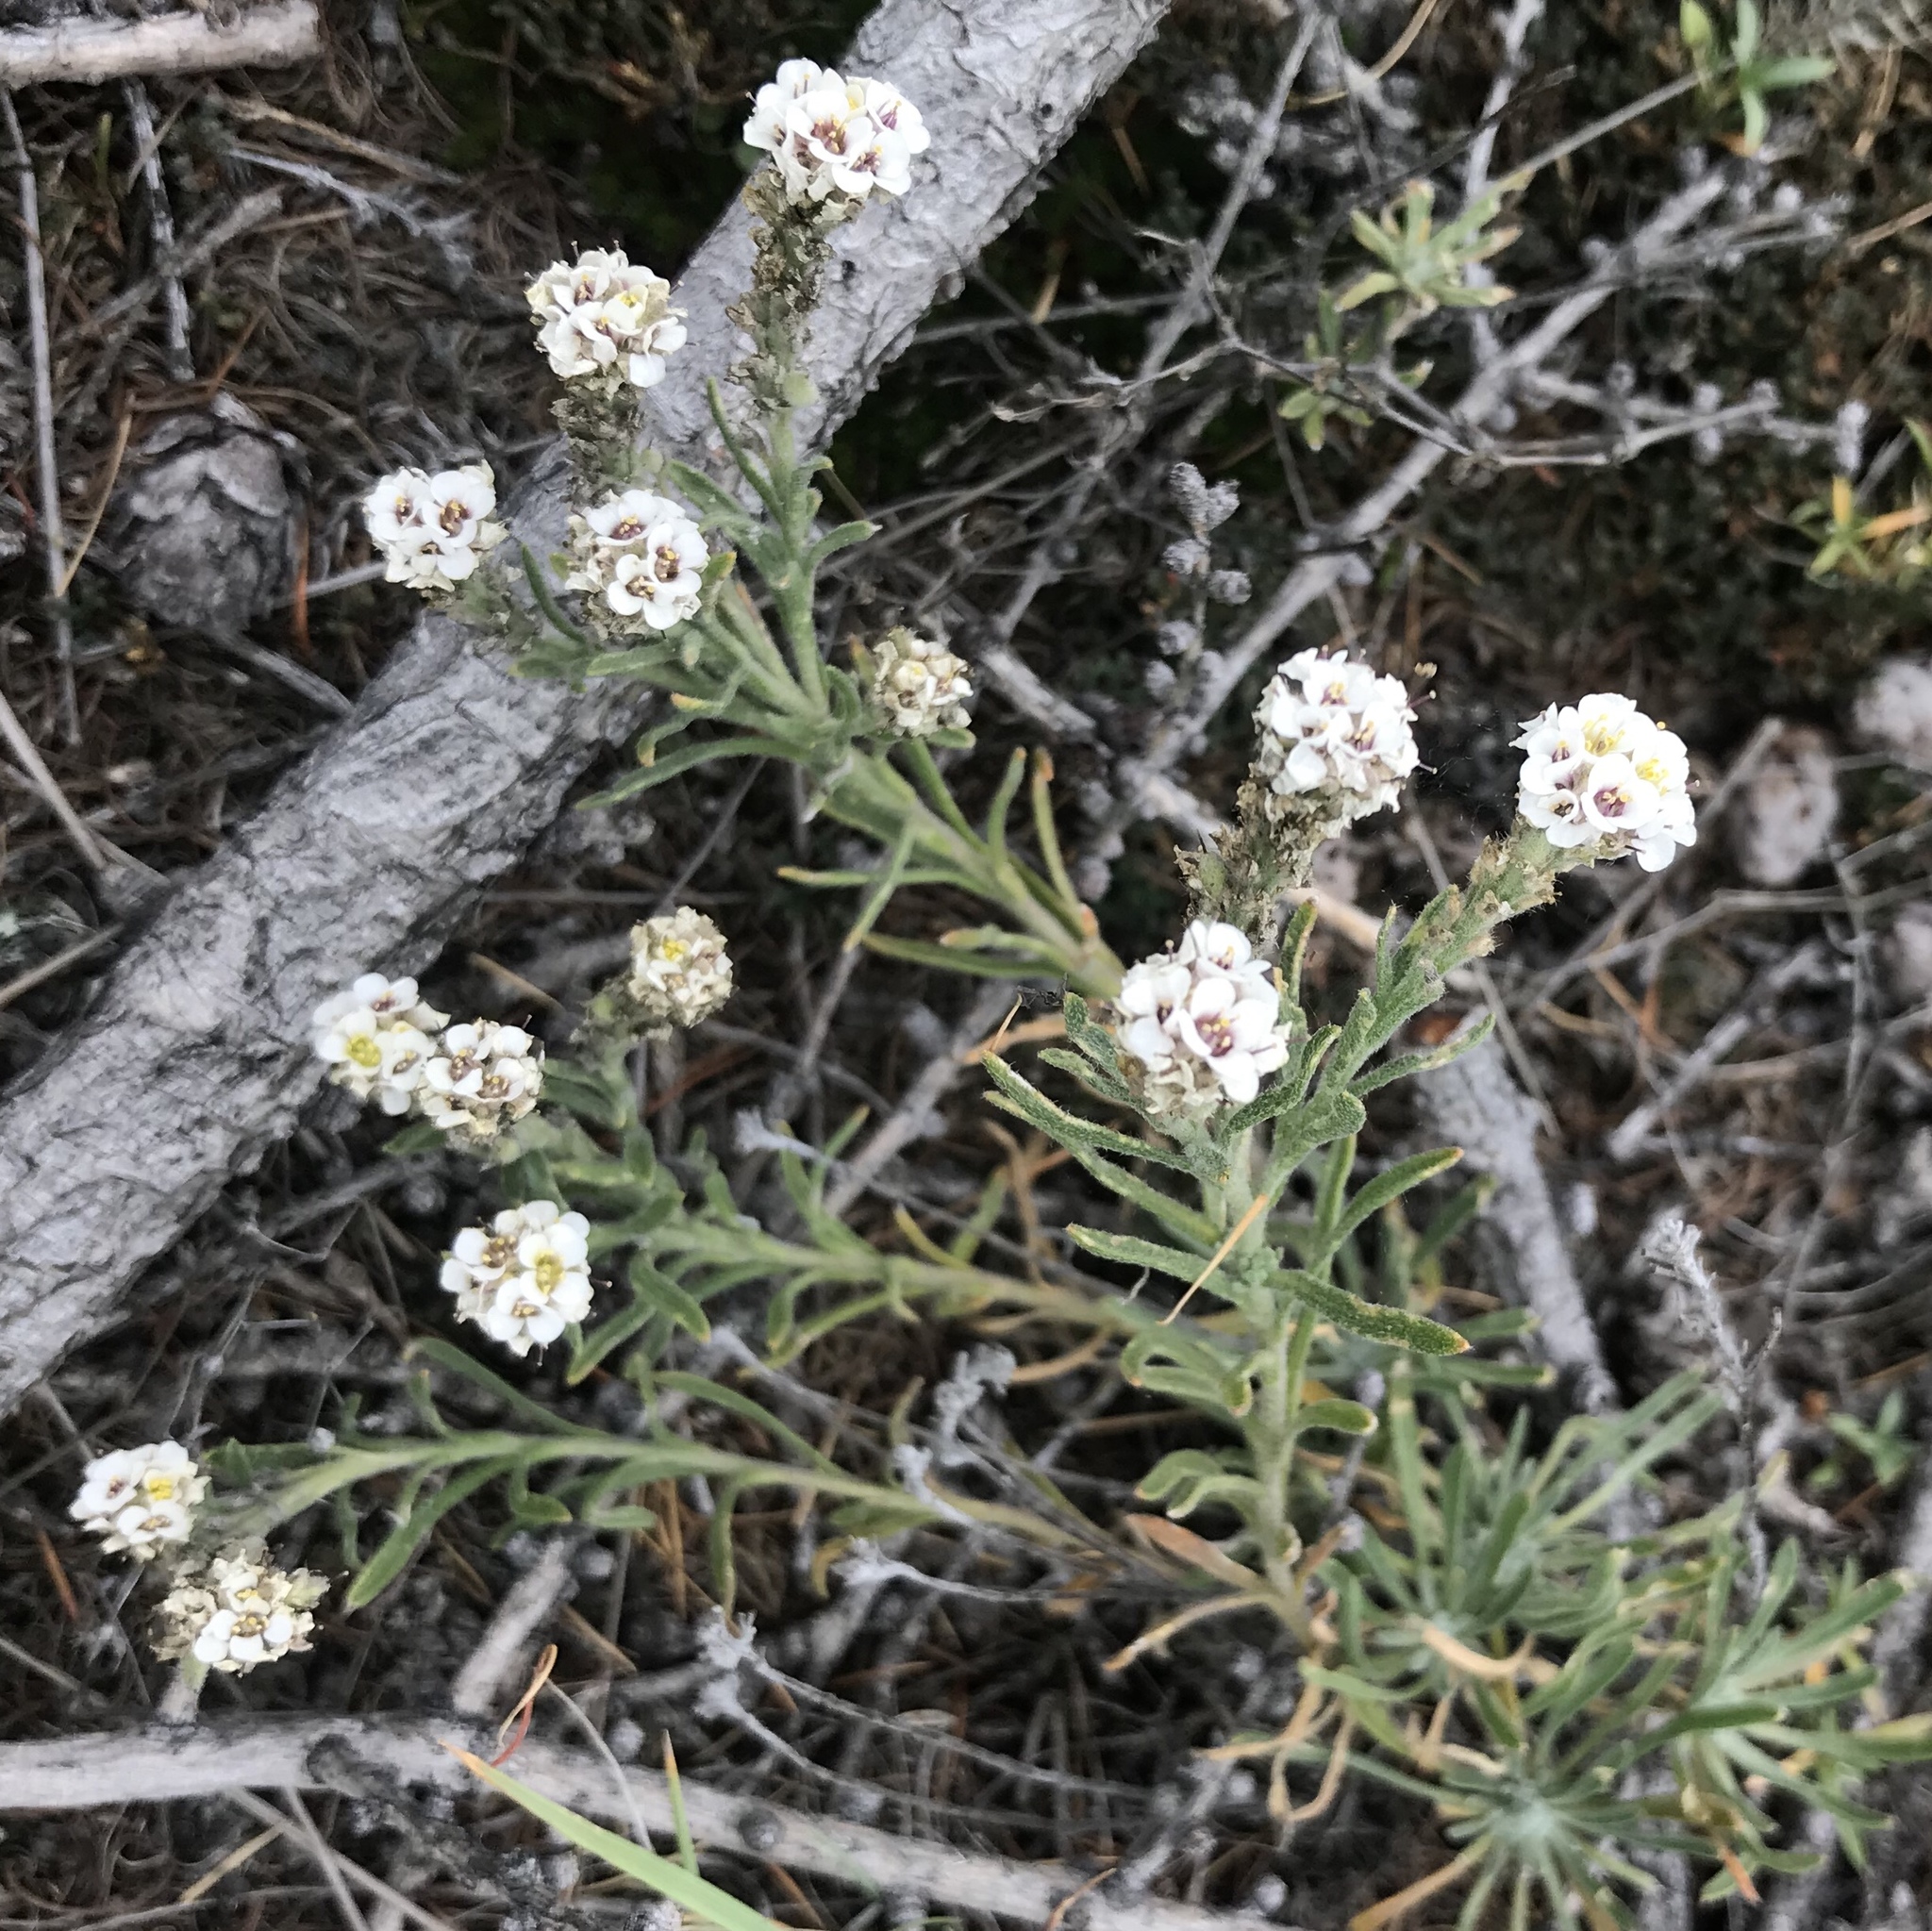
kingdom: Plantae
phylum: Tracheophyta
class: Magnoliopsida
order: Brassicales
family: Brassicaceae
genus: Stevenia
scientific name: Stevenia tenuifolia
